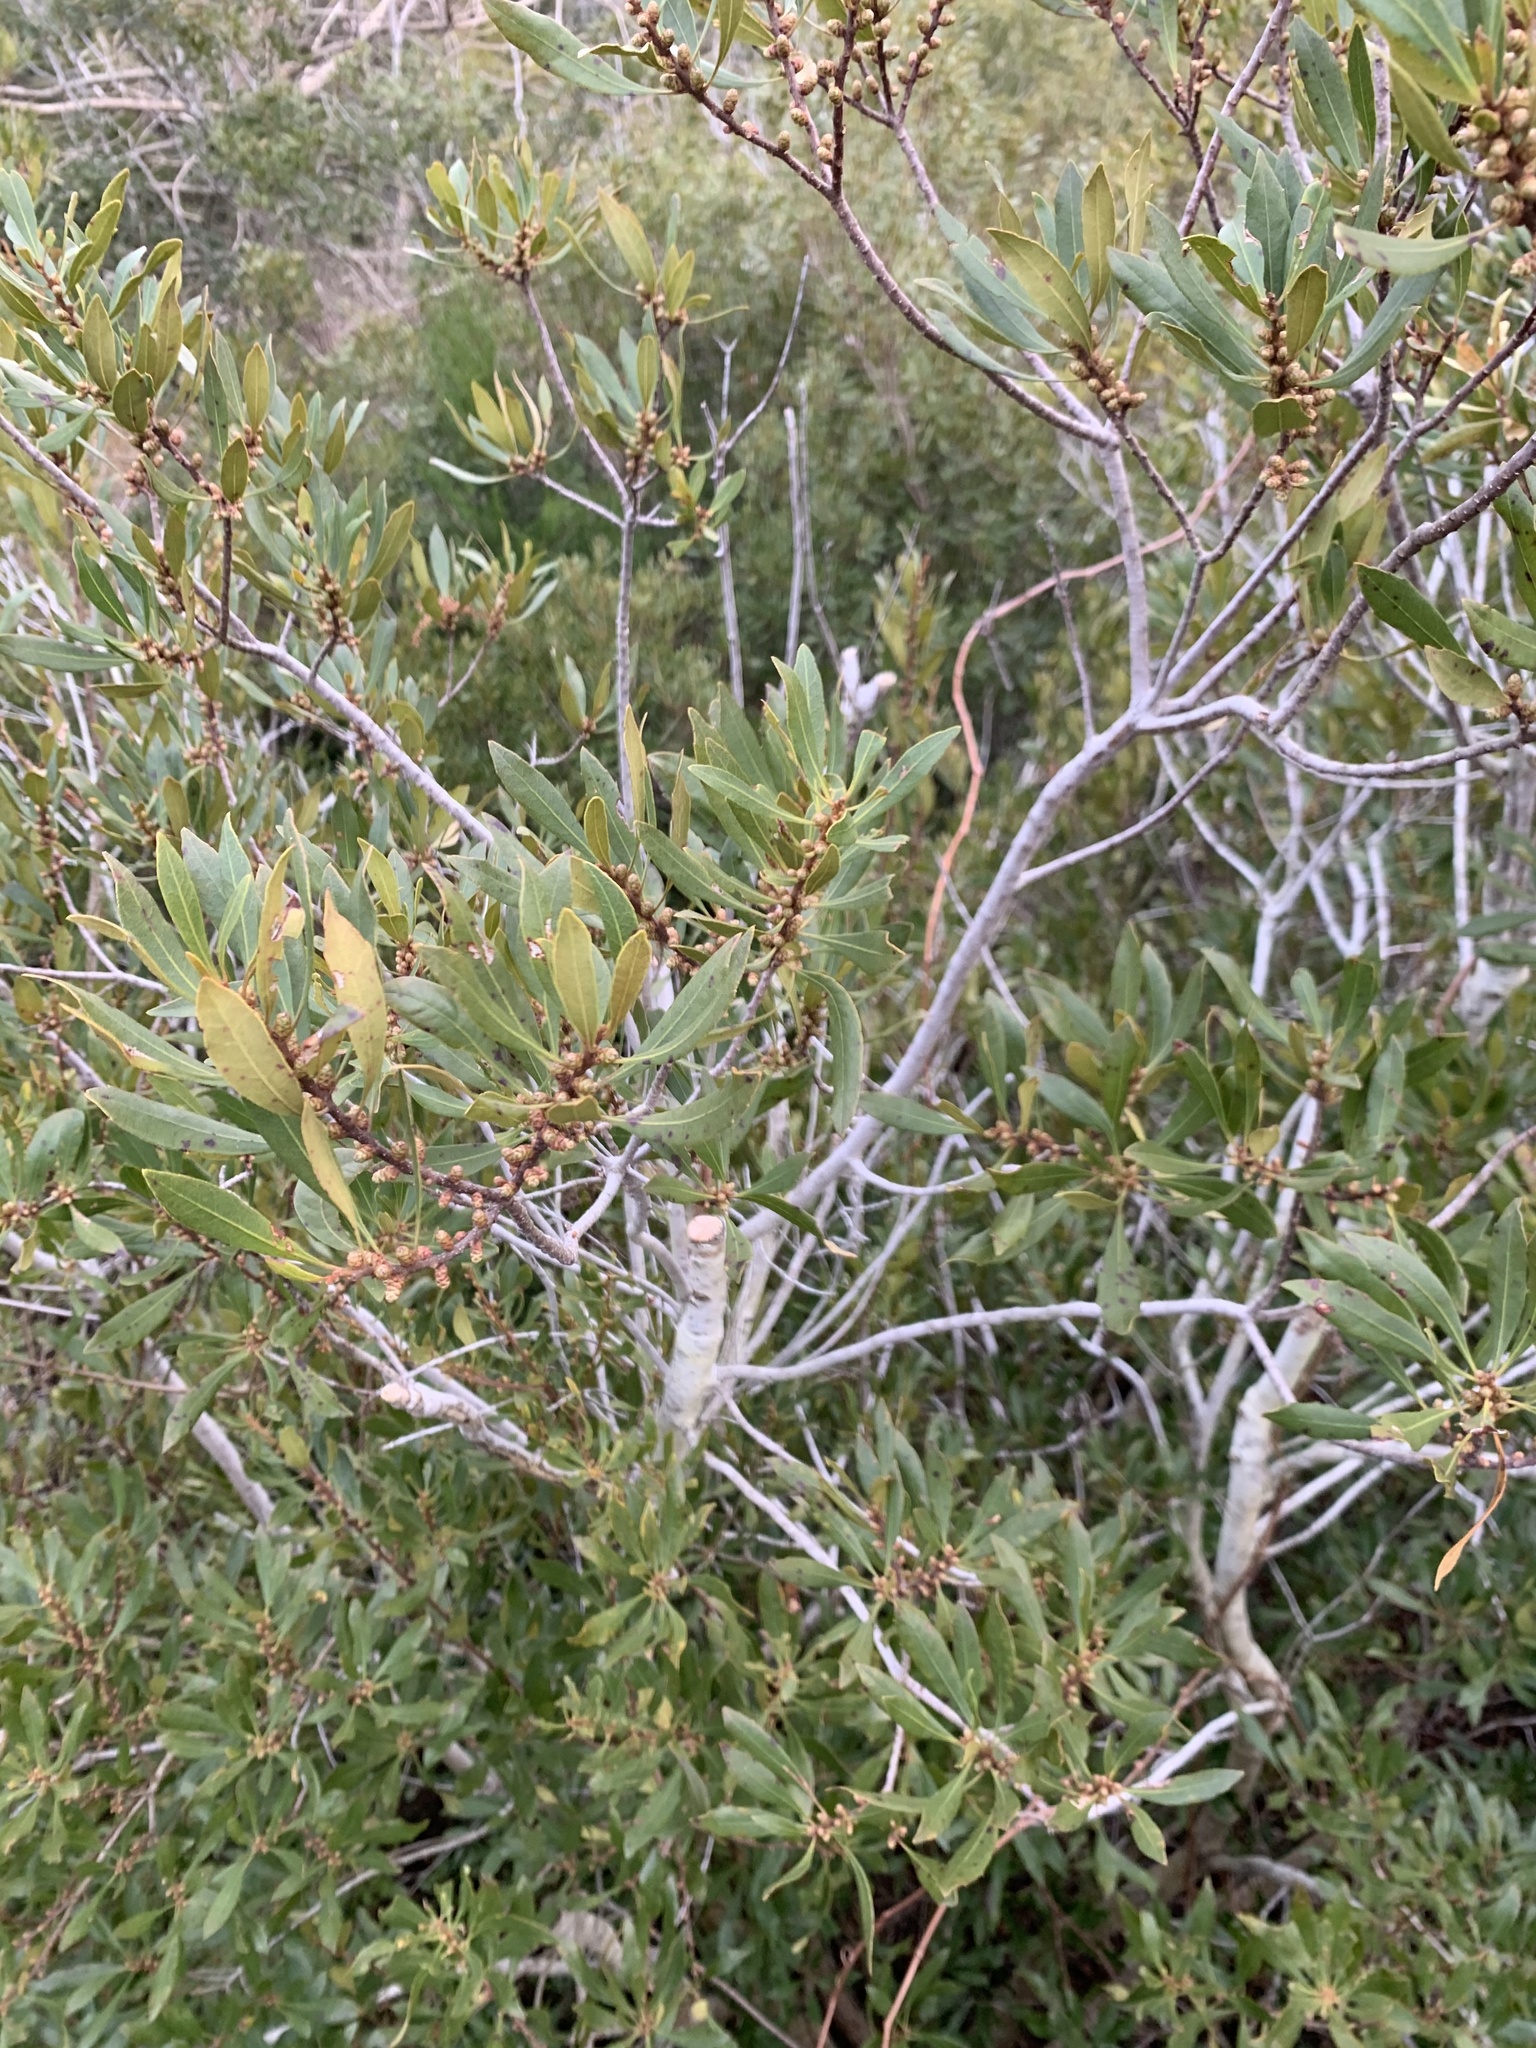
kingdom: Plantae
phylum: Tracheophyta
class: Magnoliopsida
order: Fagales
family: Myricaceae
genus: Morella
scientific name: Morella cerifera
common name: Wax myrtle
